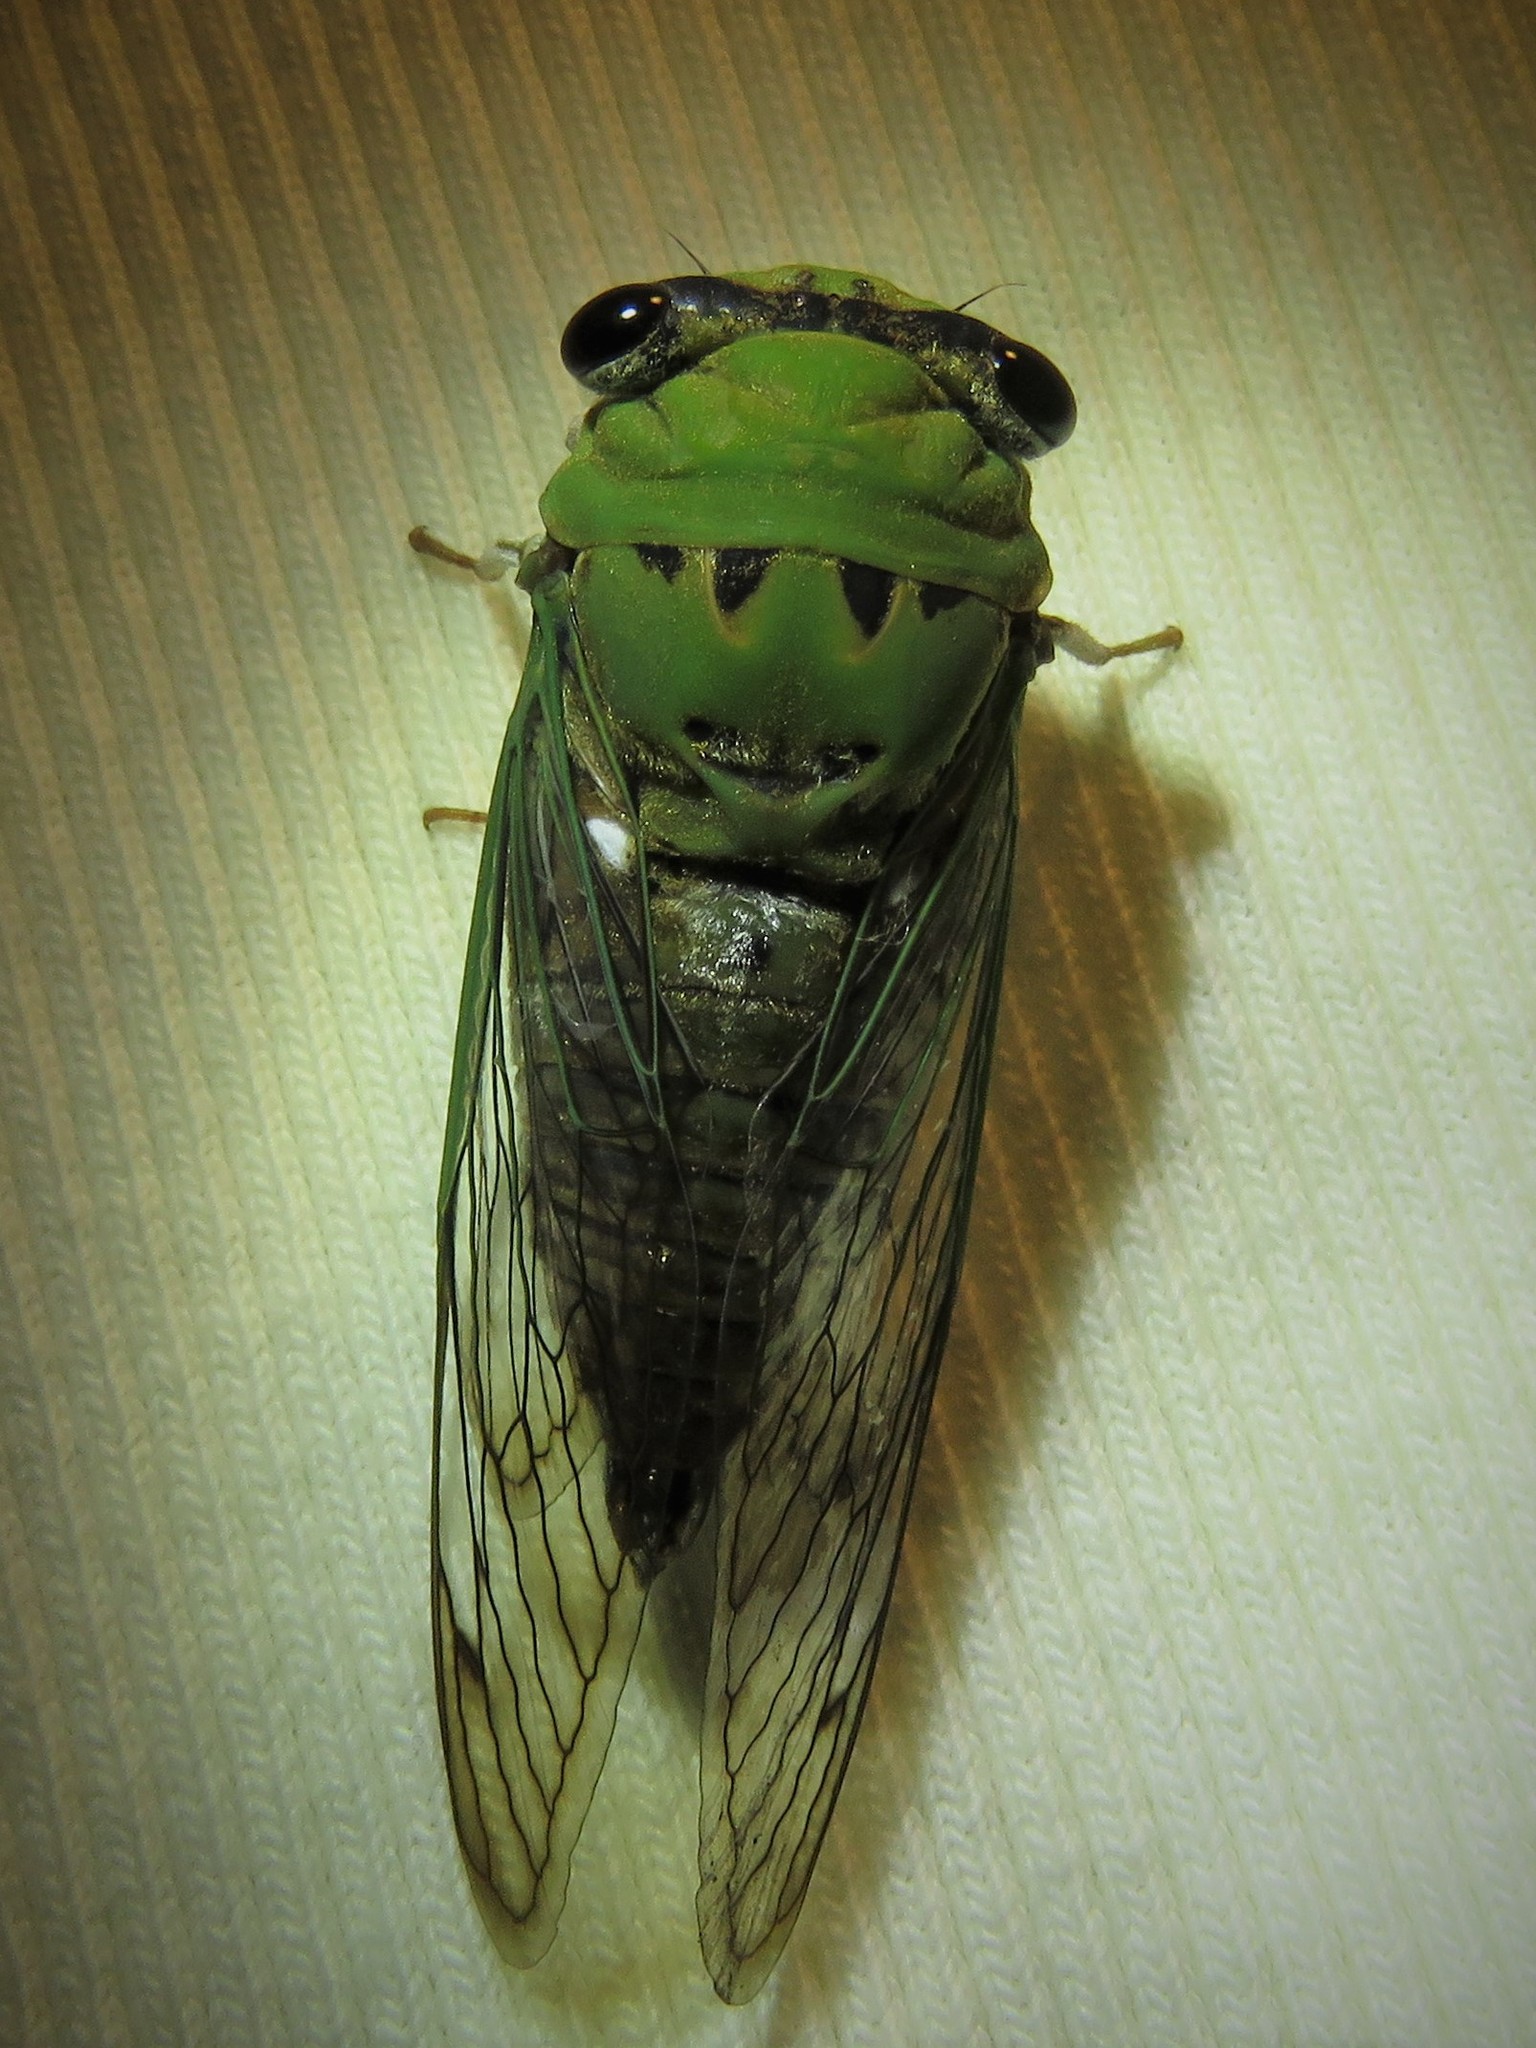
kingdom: Animalia
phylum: Arthropoda
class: Insecta
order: Hemiptera
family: Cicadidae
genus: Neotibicen
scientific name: Neotibicen superbus
